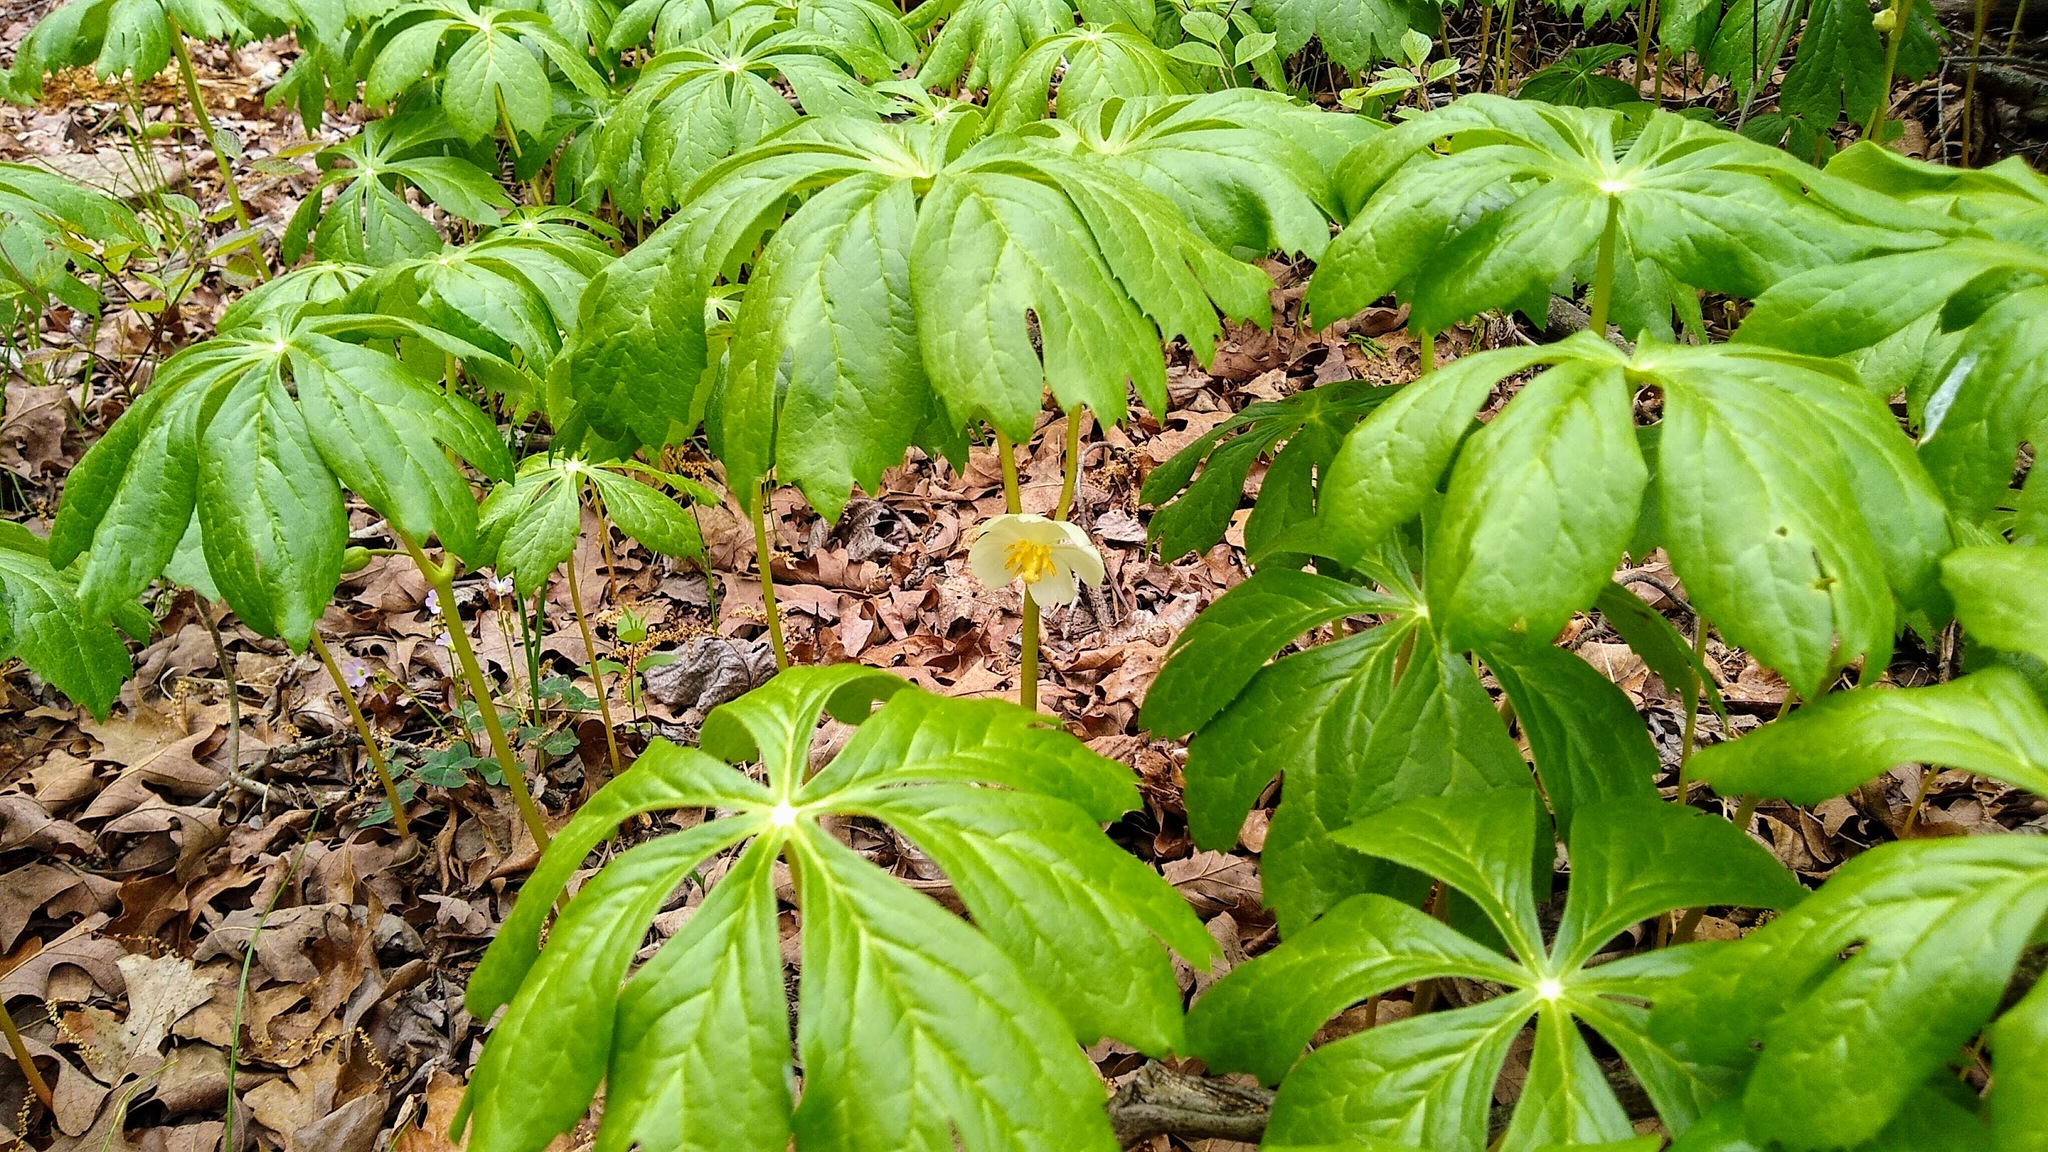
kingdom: Plantae
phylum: Tracheophyta
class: Magnoliopsida
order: Ranunculales
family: Berberidaceae
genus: Podophyllum
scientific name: Podophyllum peltatum
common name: Wild mandrake
